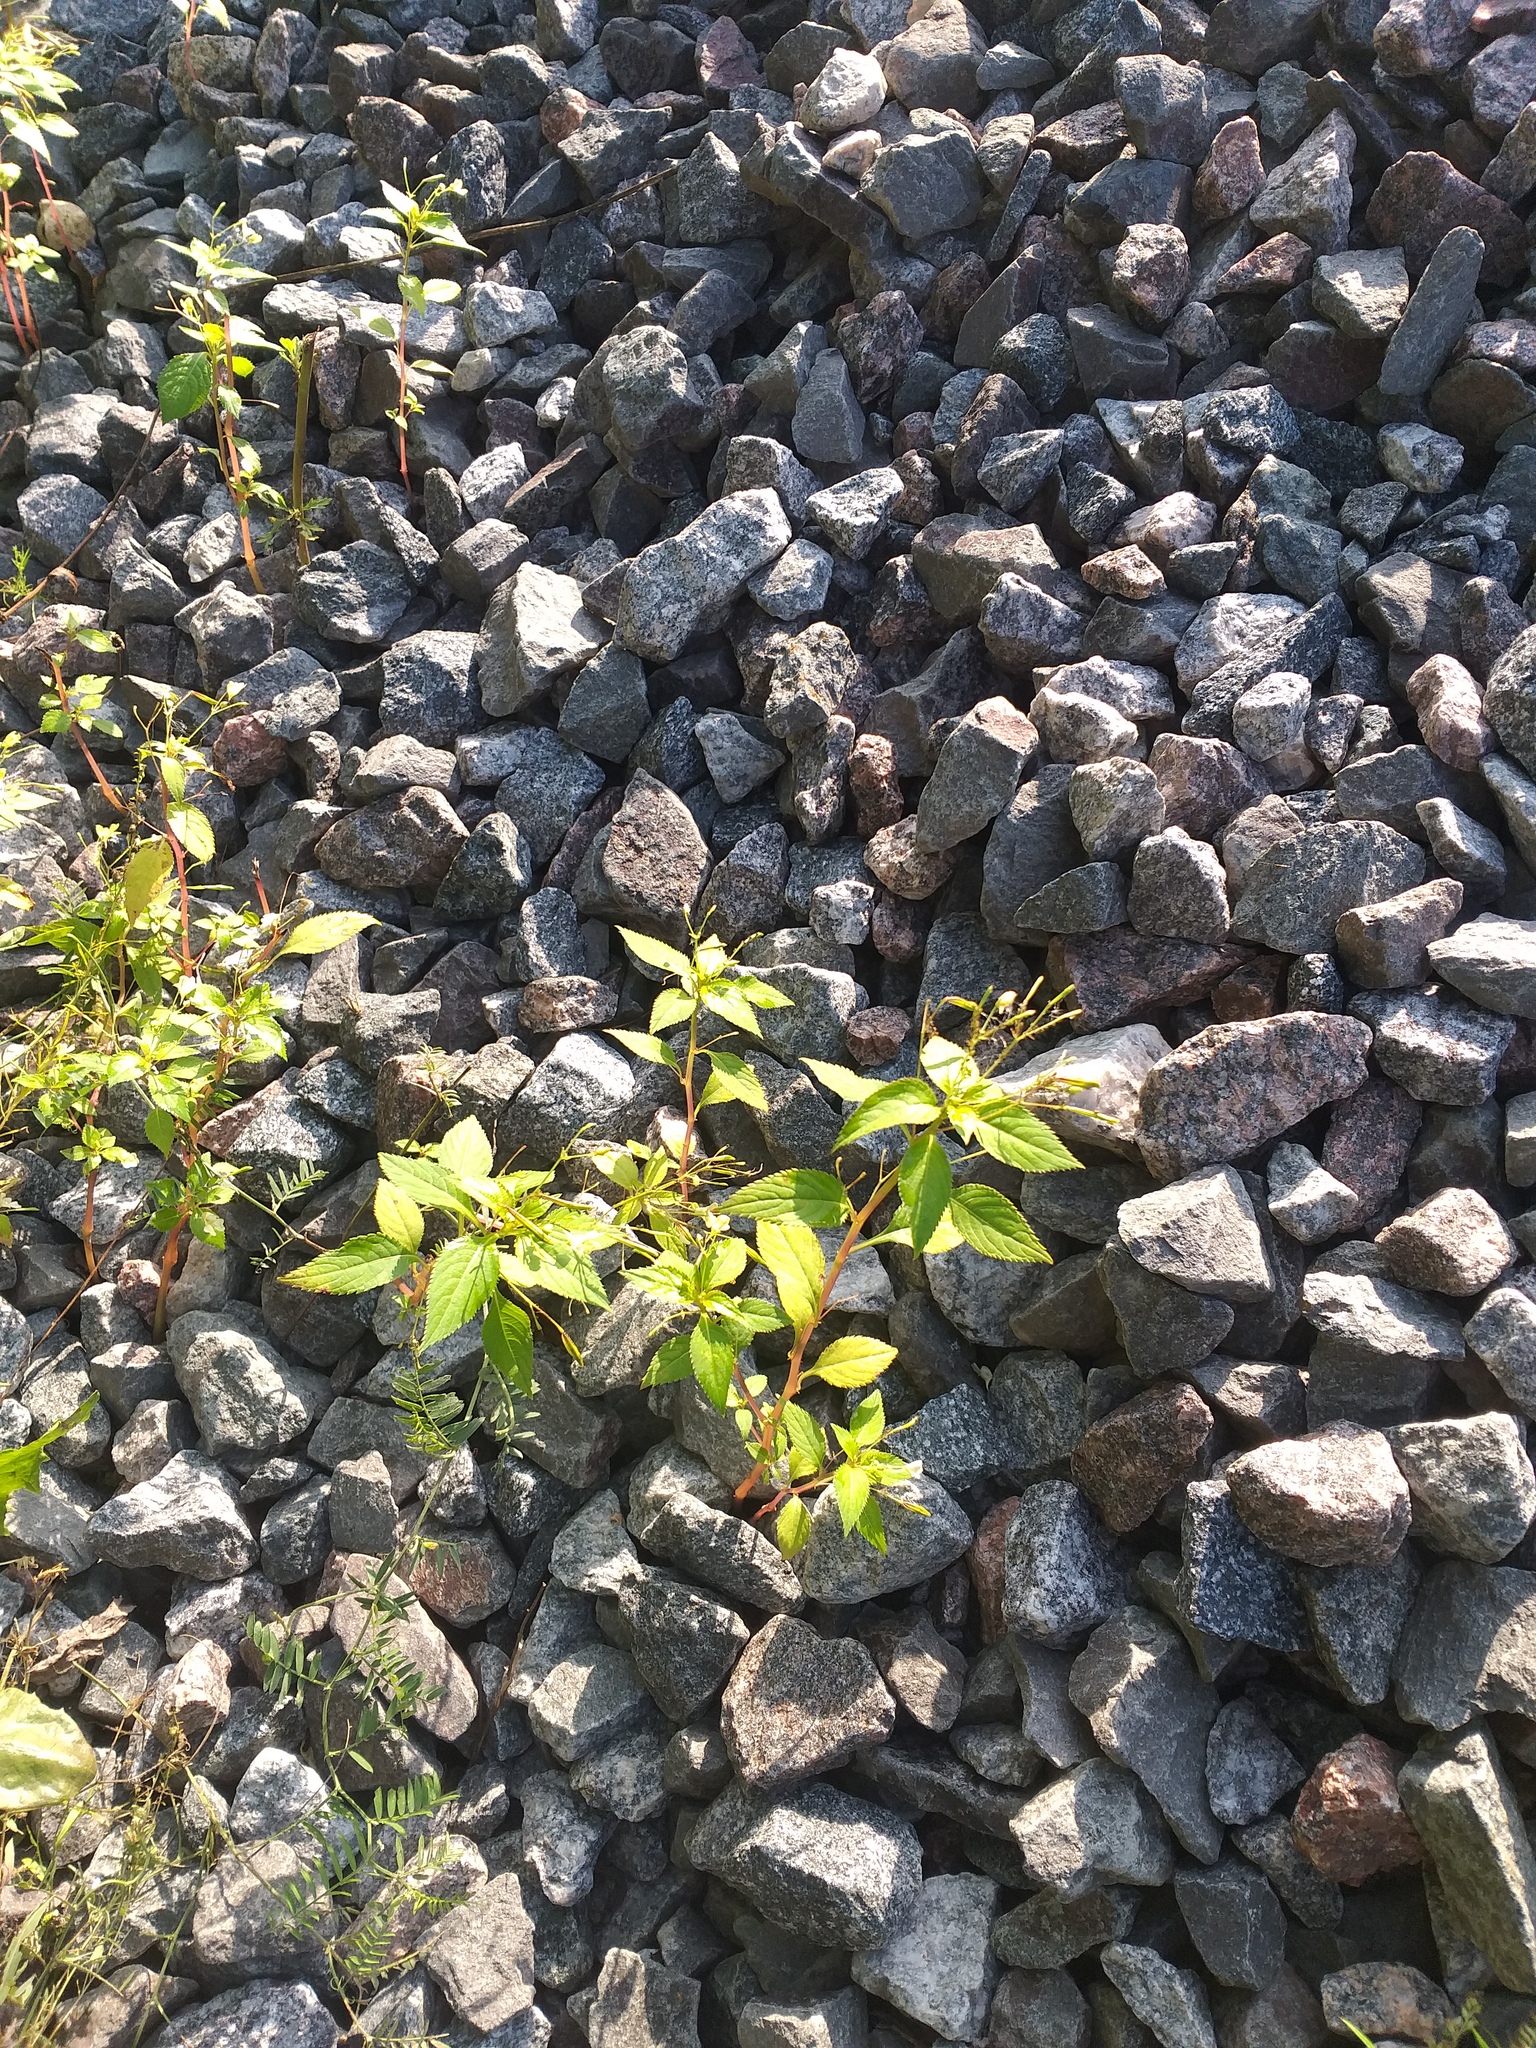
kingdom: Plantae
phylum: Tracheophyta
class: Magnoliopsida
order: Ericales
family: Balsaminaceae
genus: Impatiens
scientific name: Impatiens parviflora
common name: Small balsam
